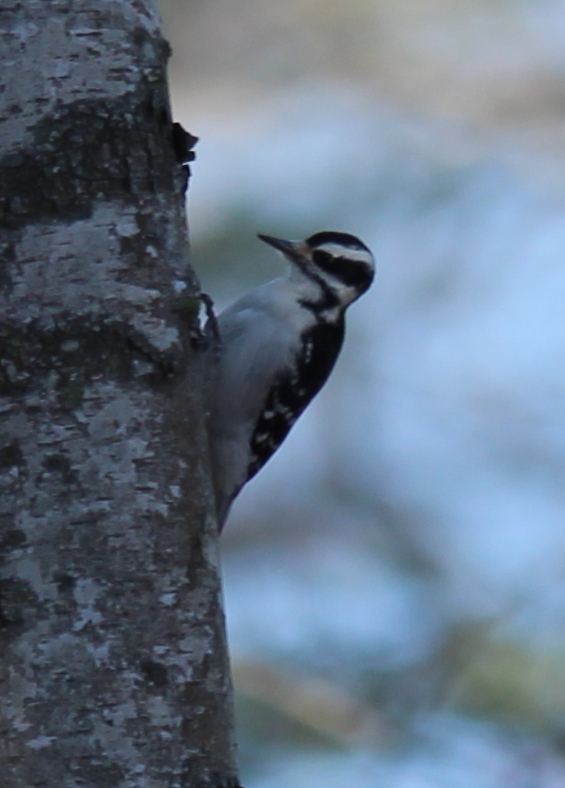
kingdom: Animalia
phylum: Chordata
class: Aves
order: Piciformes
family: Picidae
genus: Leuconotopicus
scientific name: Leuconotopicus villosus
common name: Hairy woodpecker
